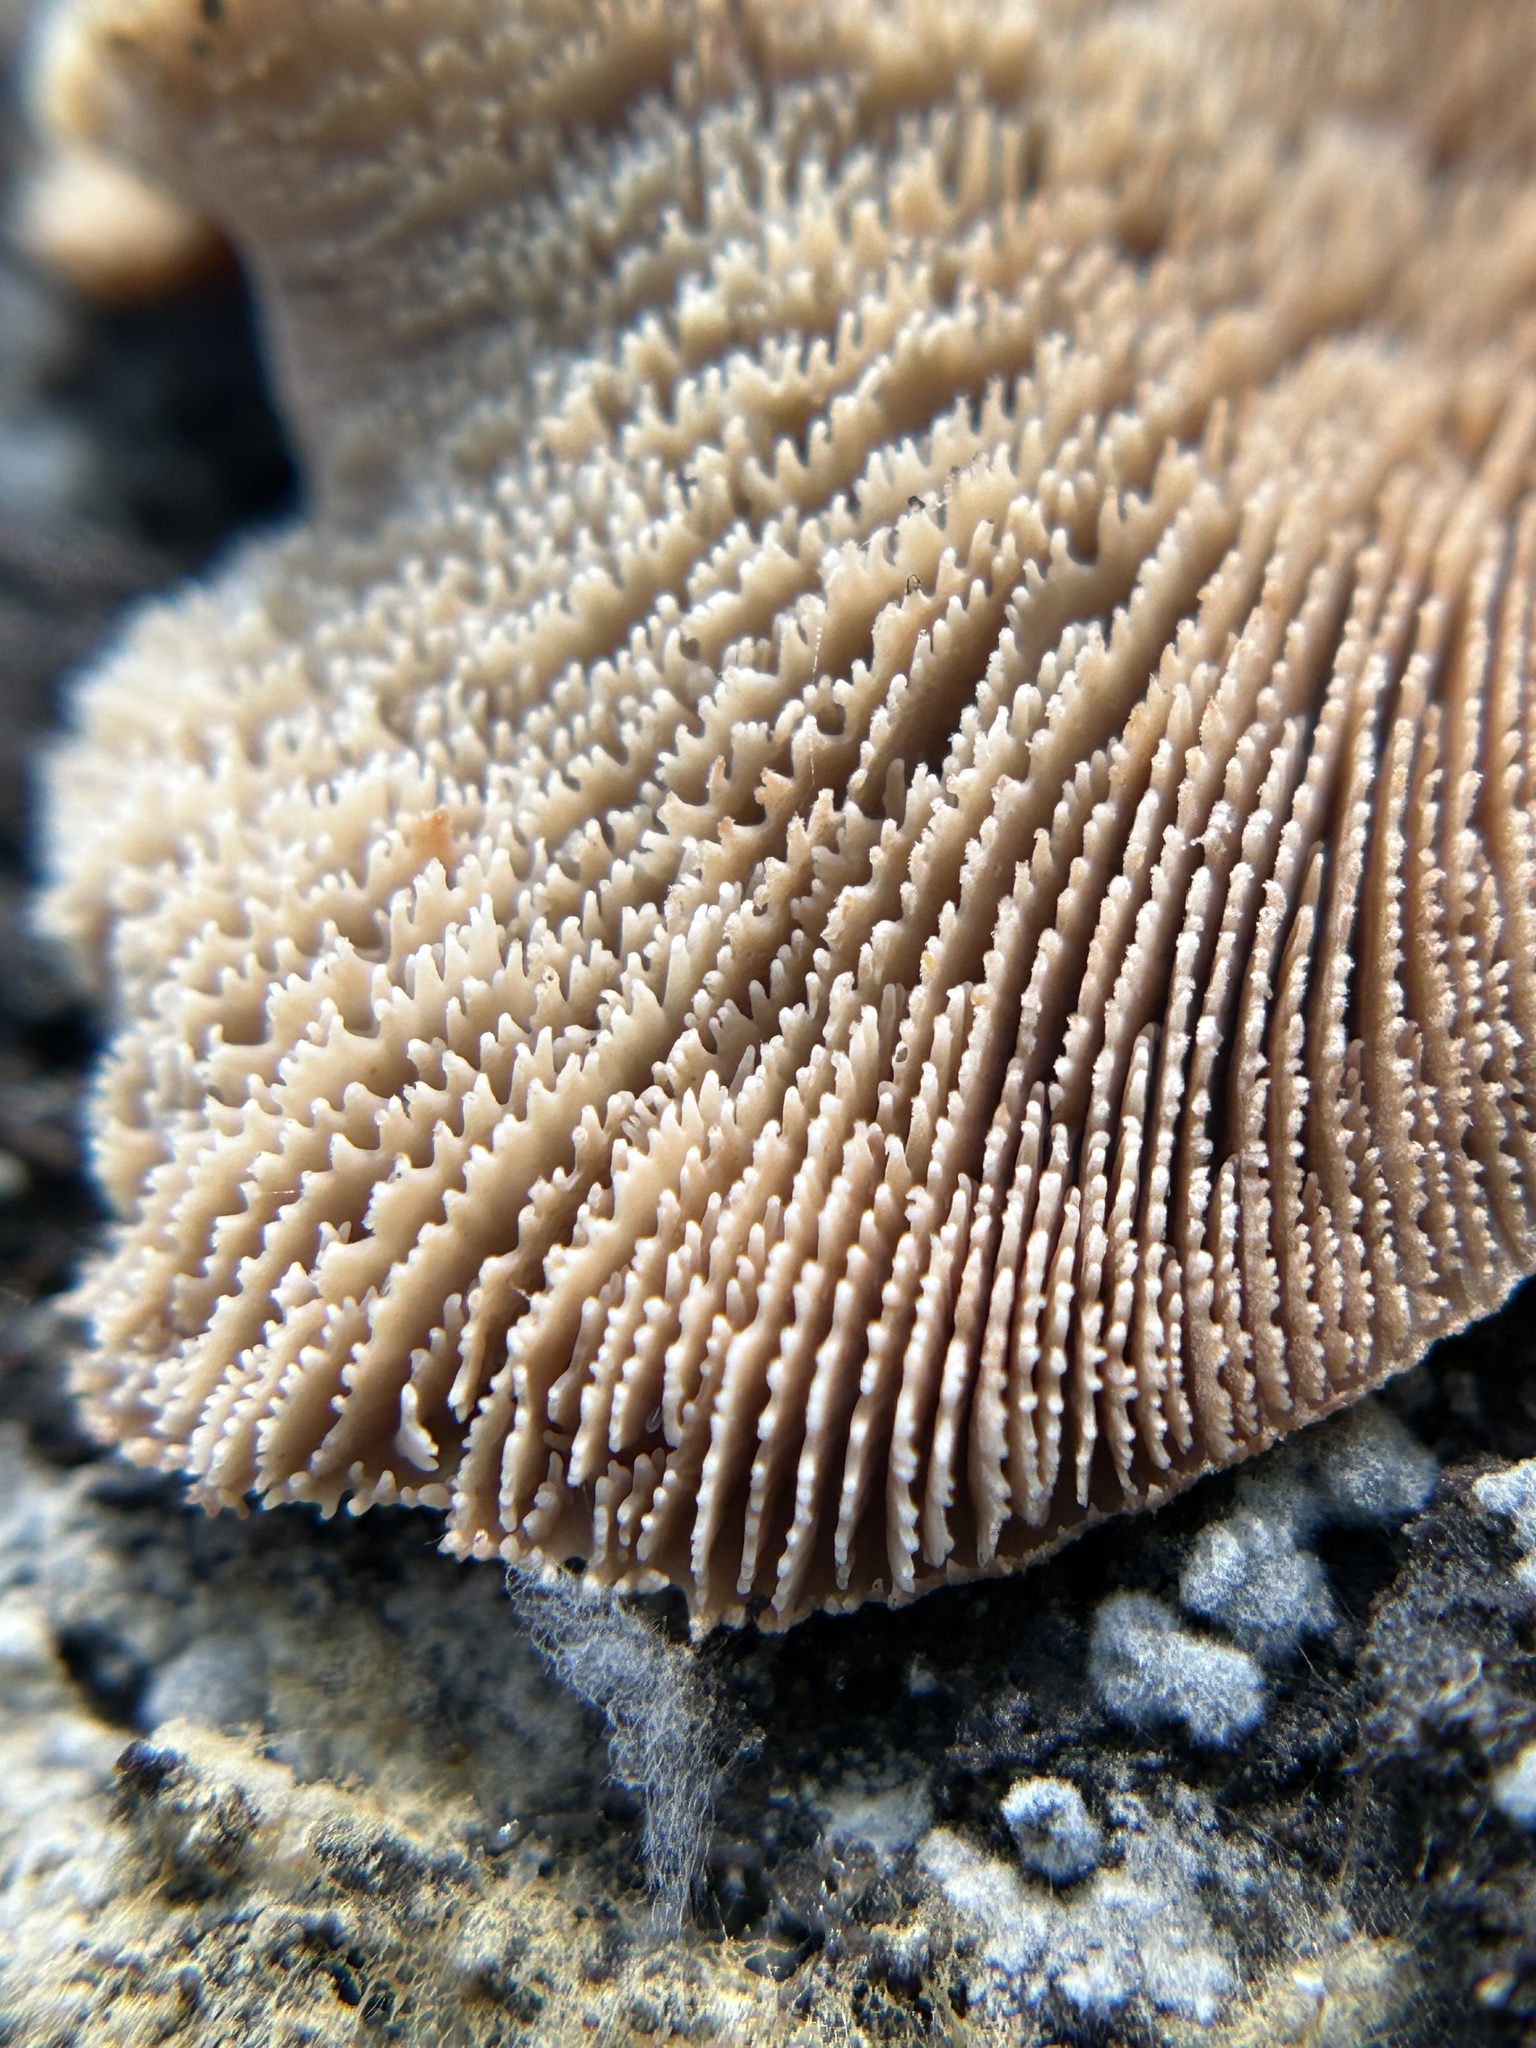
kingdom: Fungi
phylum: Basidiomycota
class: Agaricomycetes
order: Russulales
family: Auriscalpiaceae
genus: Lentinellus
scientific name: Lentinellus ursinus
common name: Bear lentinus
